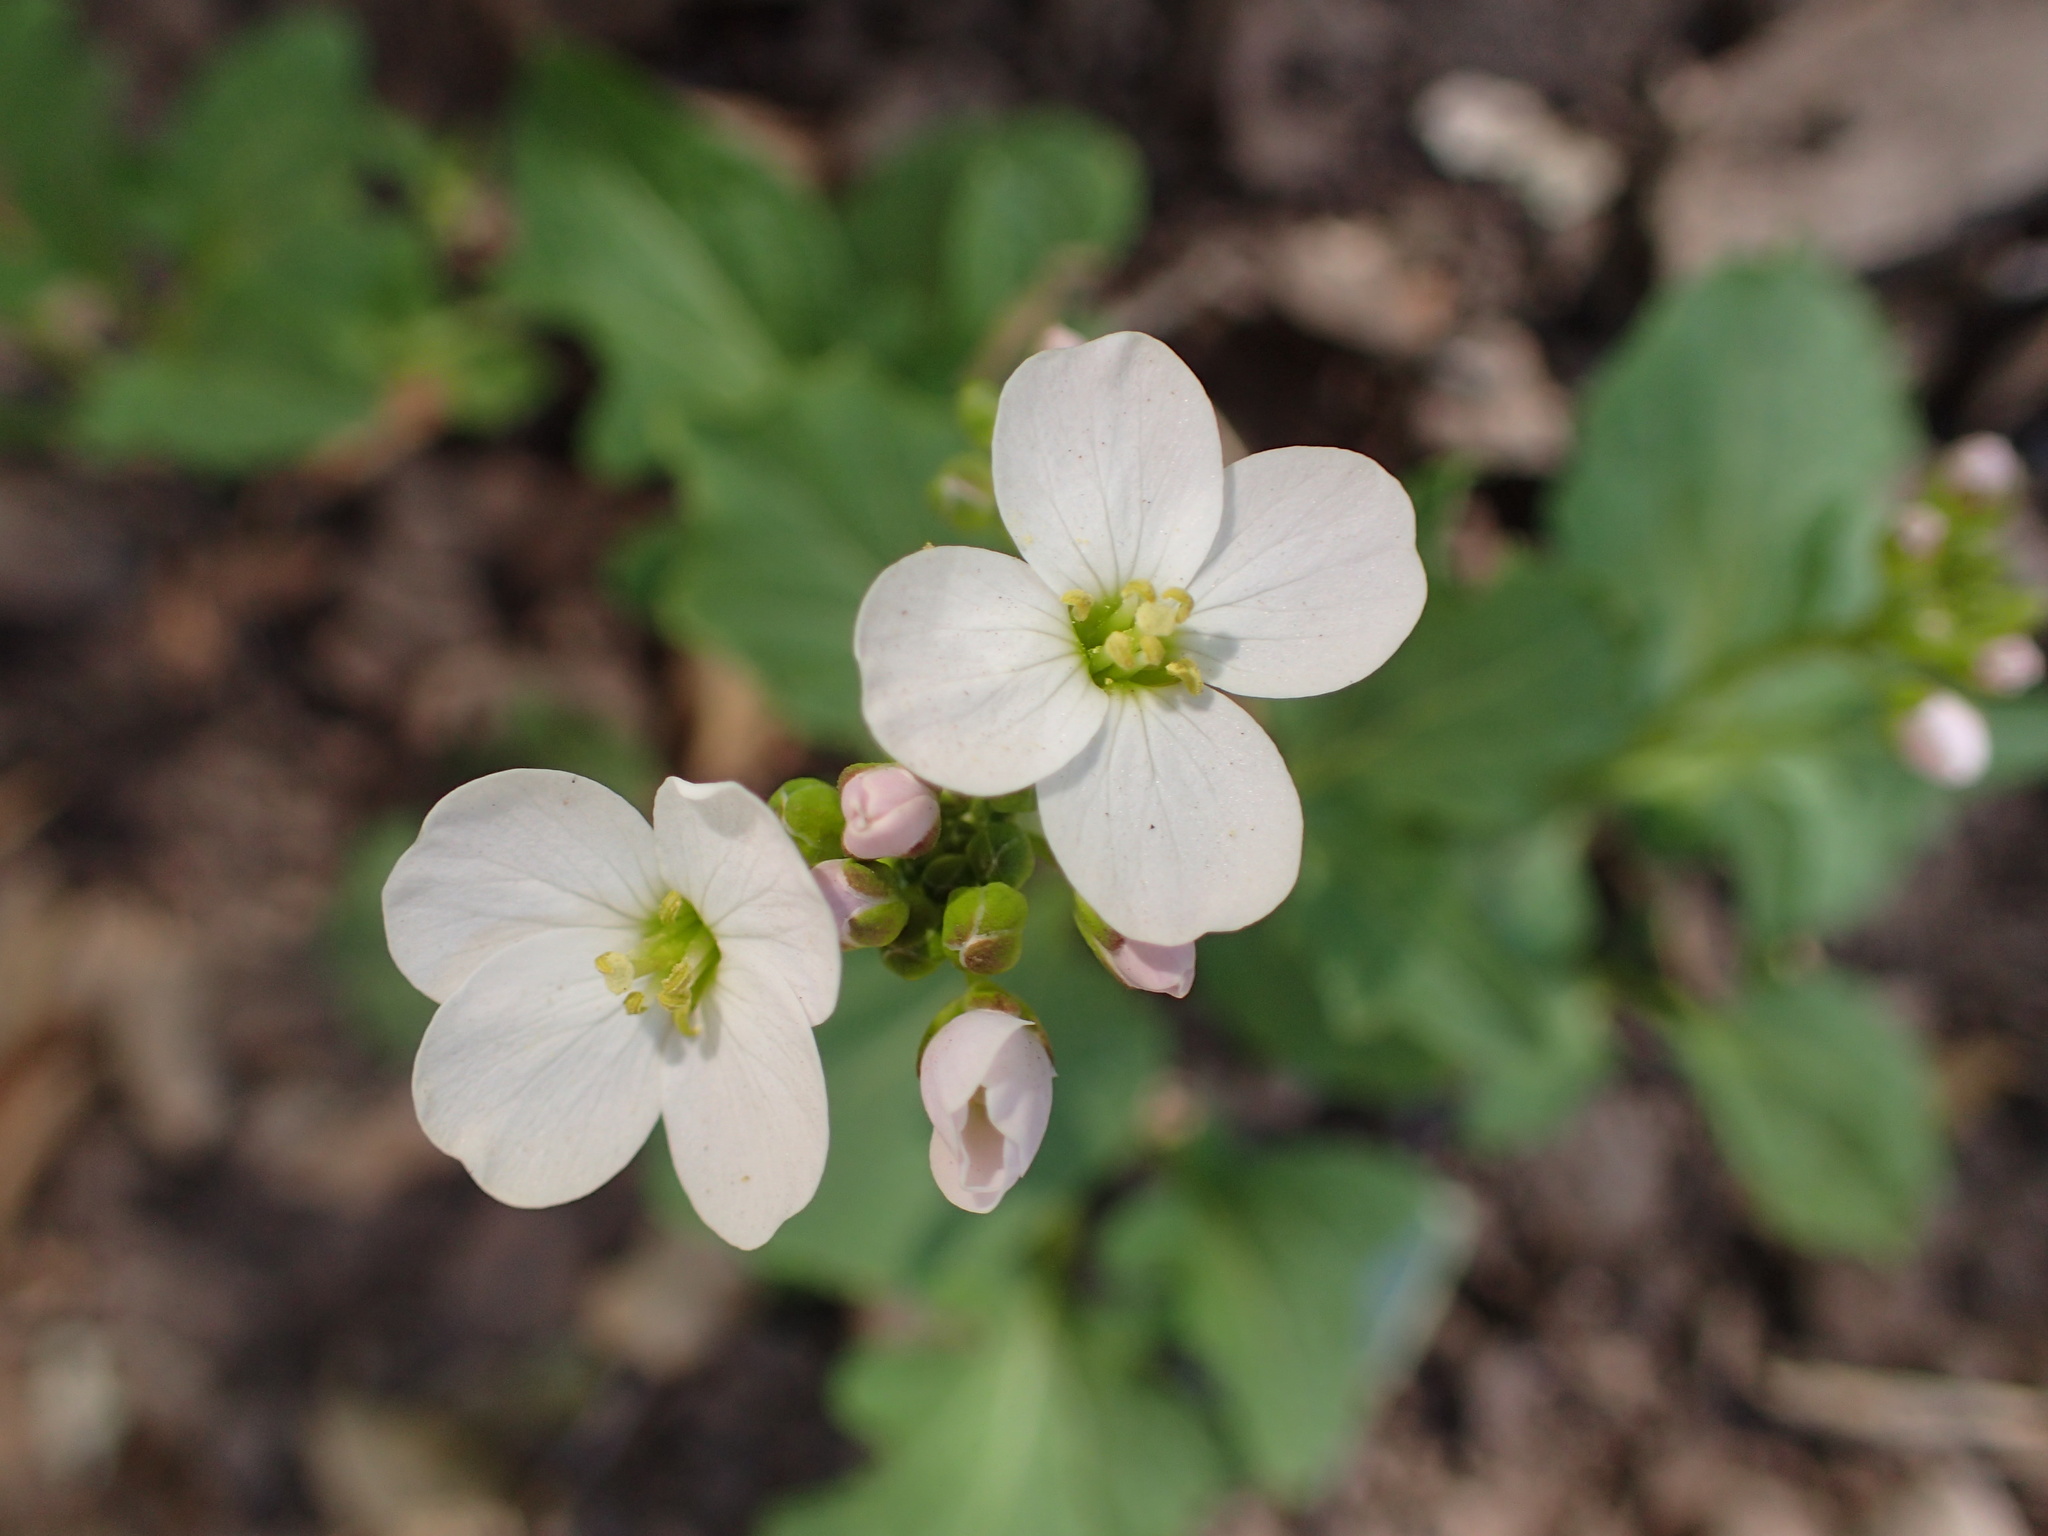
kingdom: Plantae
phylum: Tracheophyta
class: Magnoliopsida
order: Brassicales
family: Brassicaceae
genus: Cardamine
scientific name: Cardamine californica
